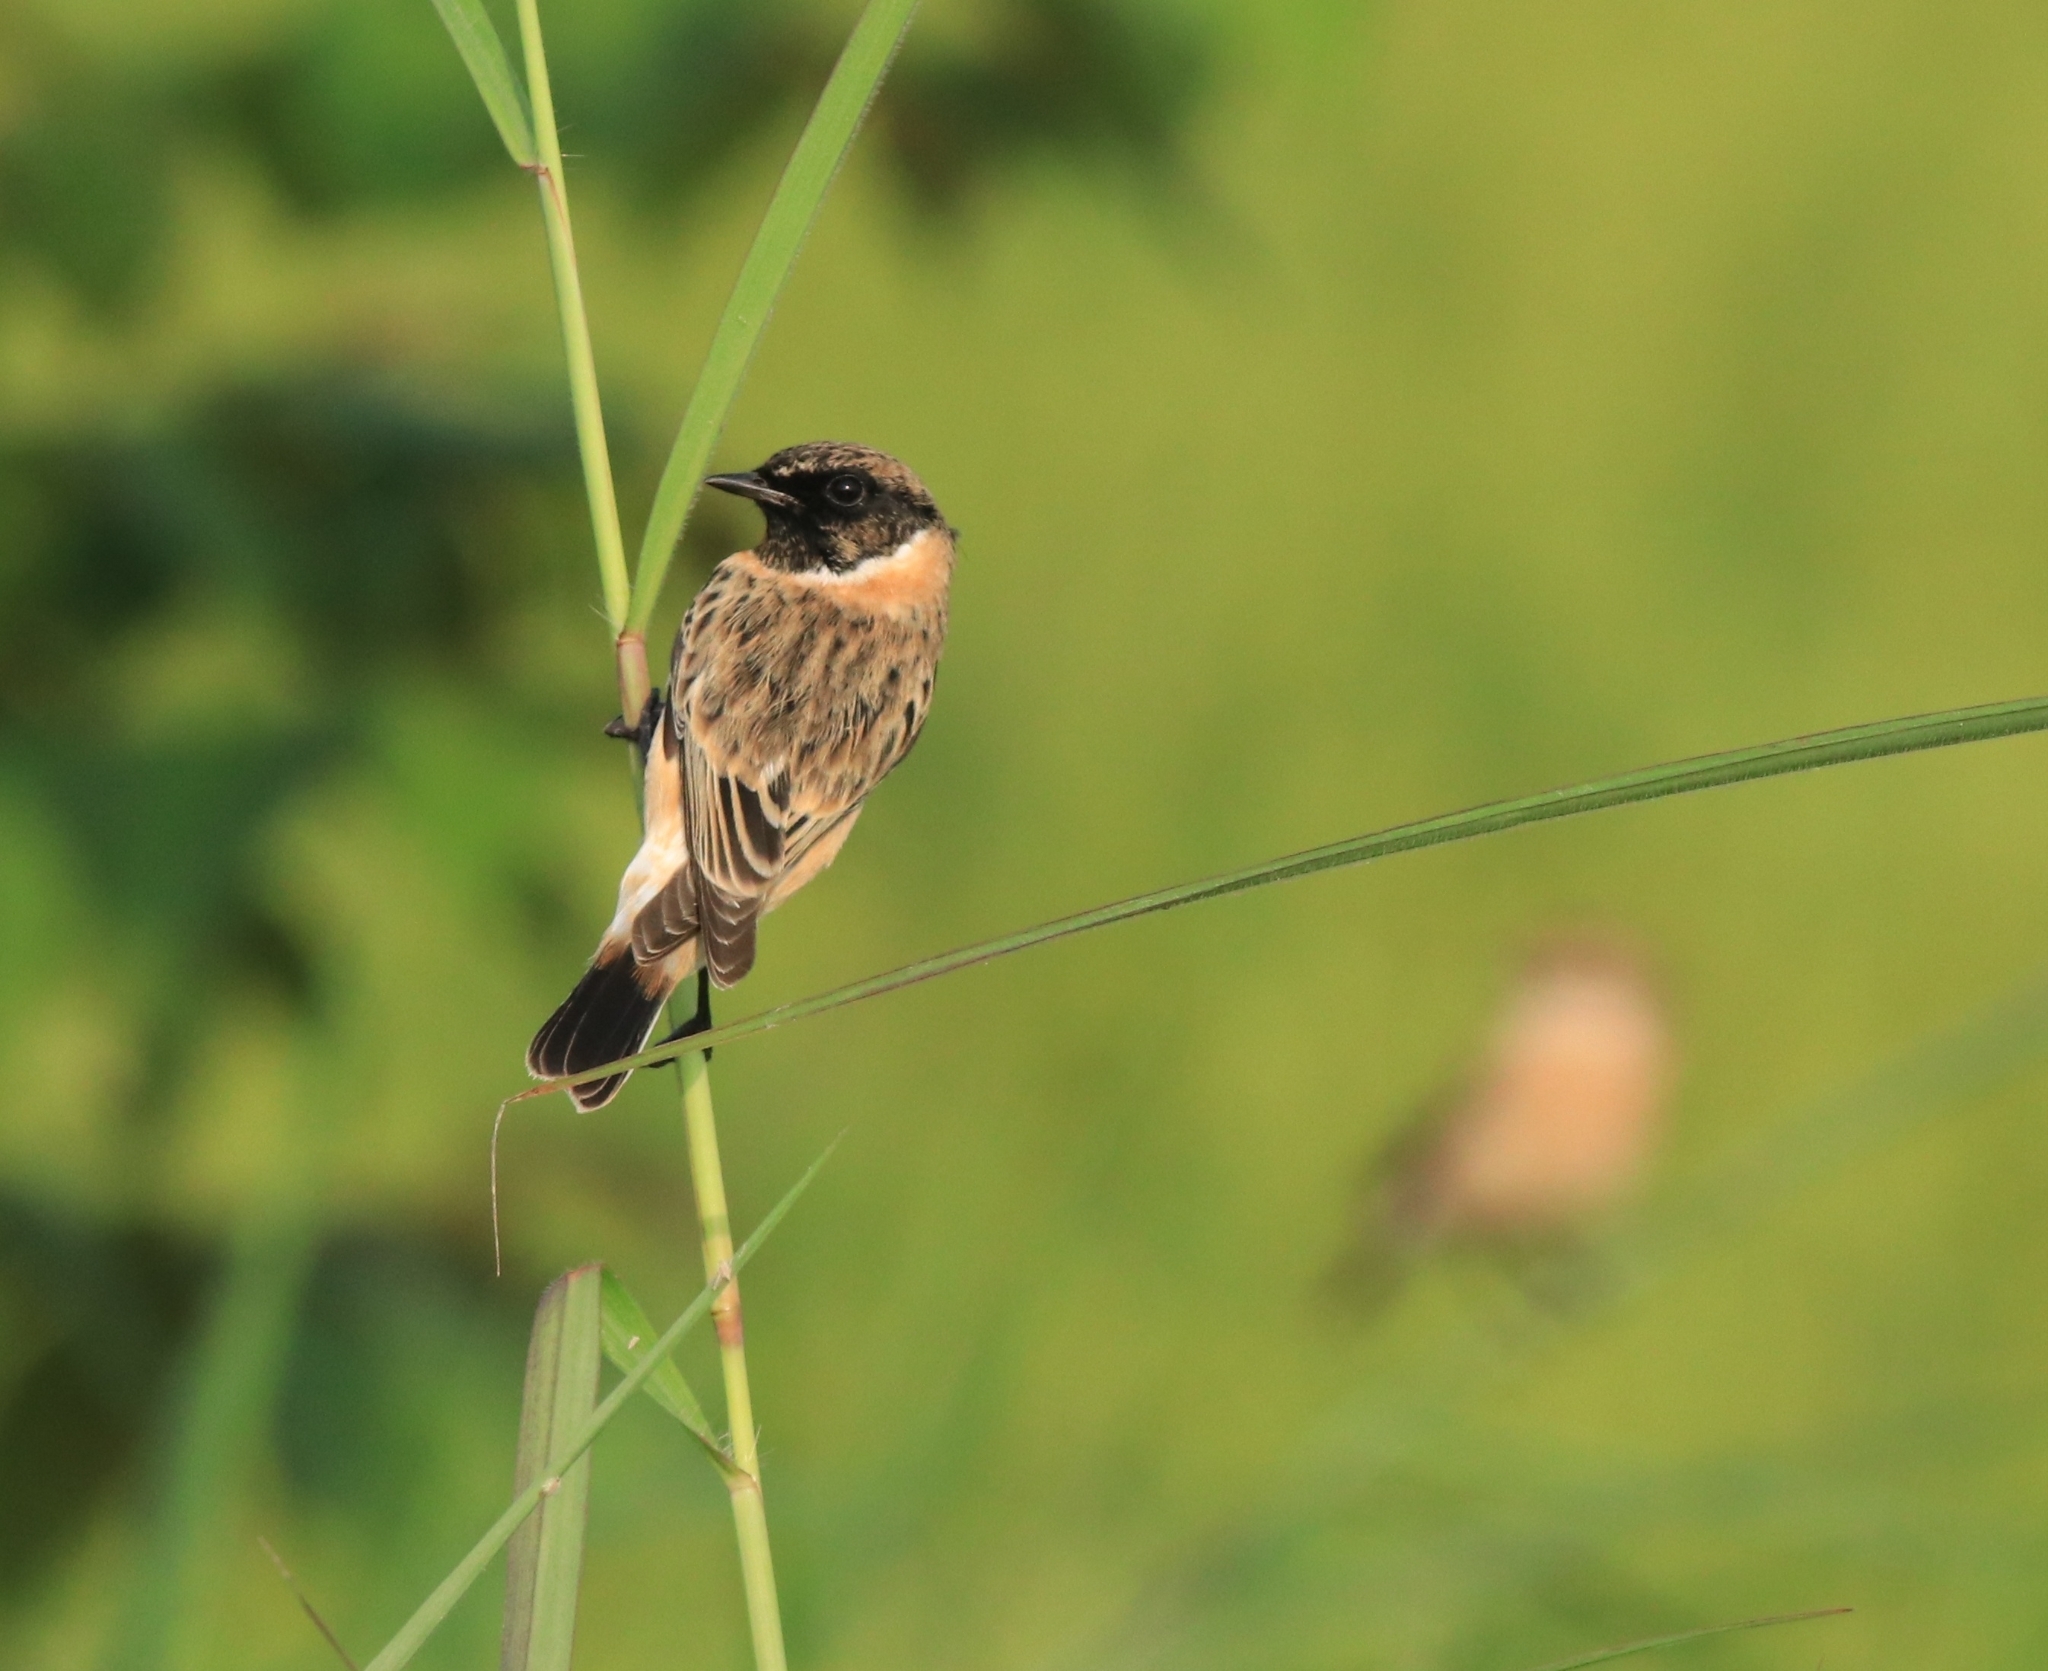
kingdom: Animalia
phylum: Chordata
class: Aves
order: Passeriformes
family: Muscicapidae
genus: Saxicola
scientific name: Saxicola maurus
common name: Siberian stonechat
